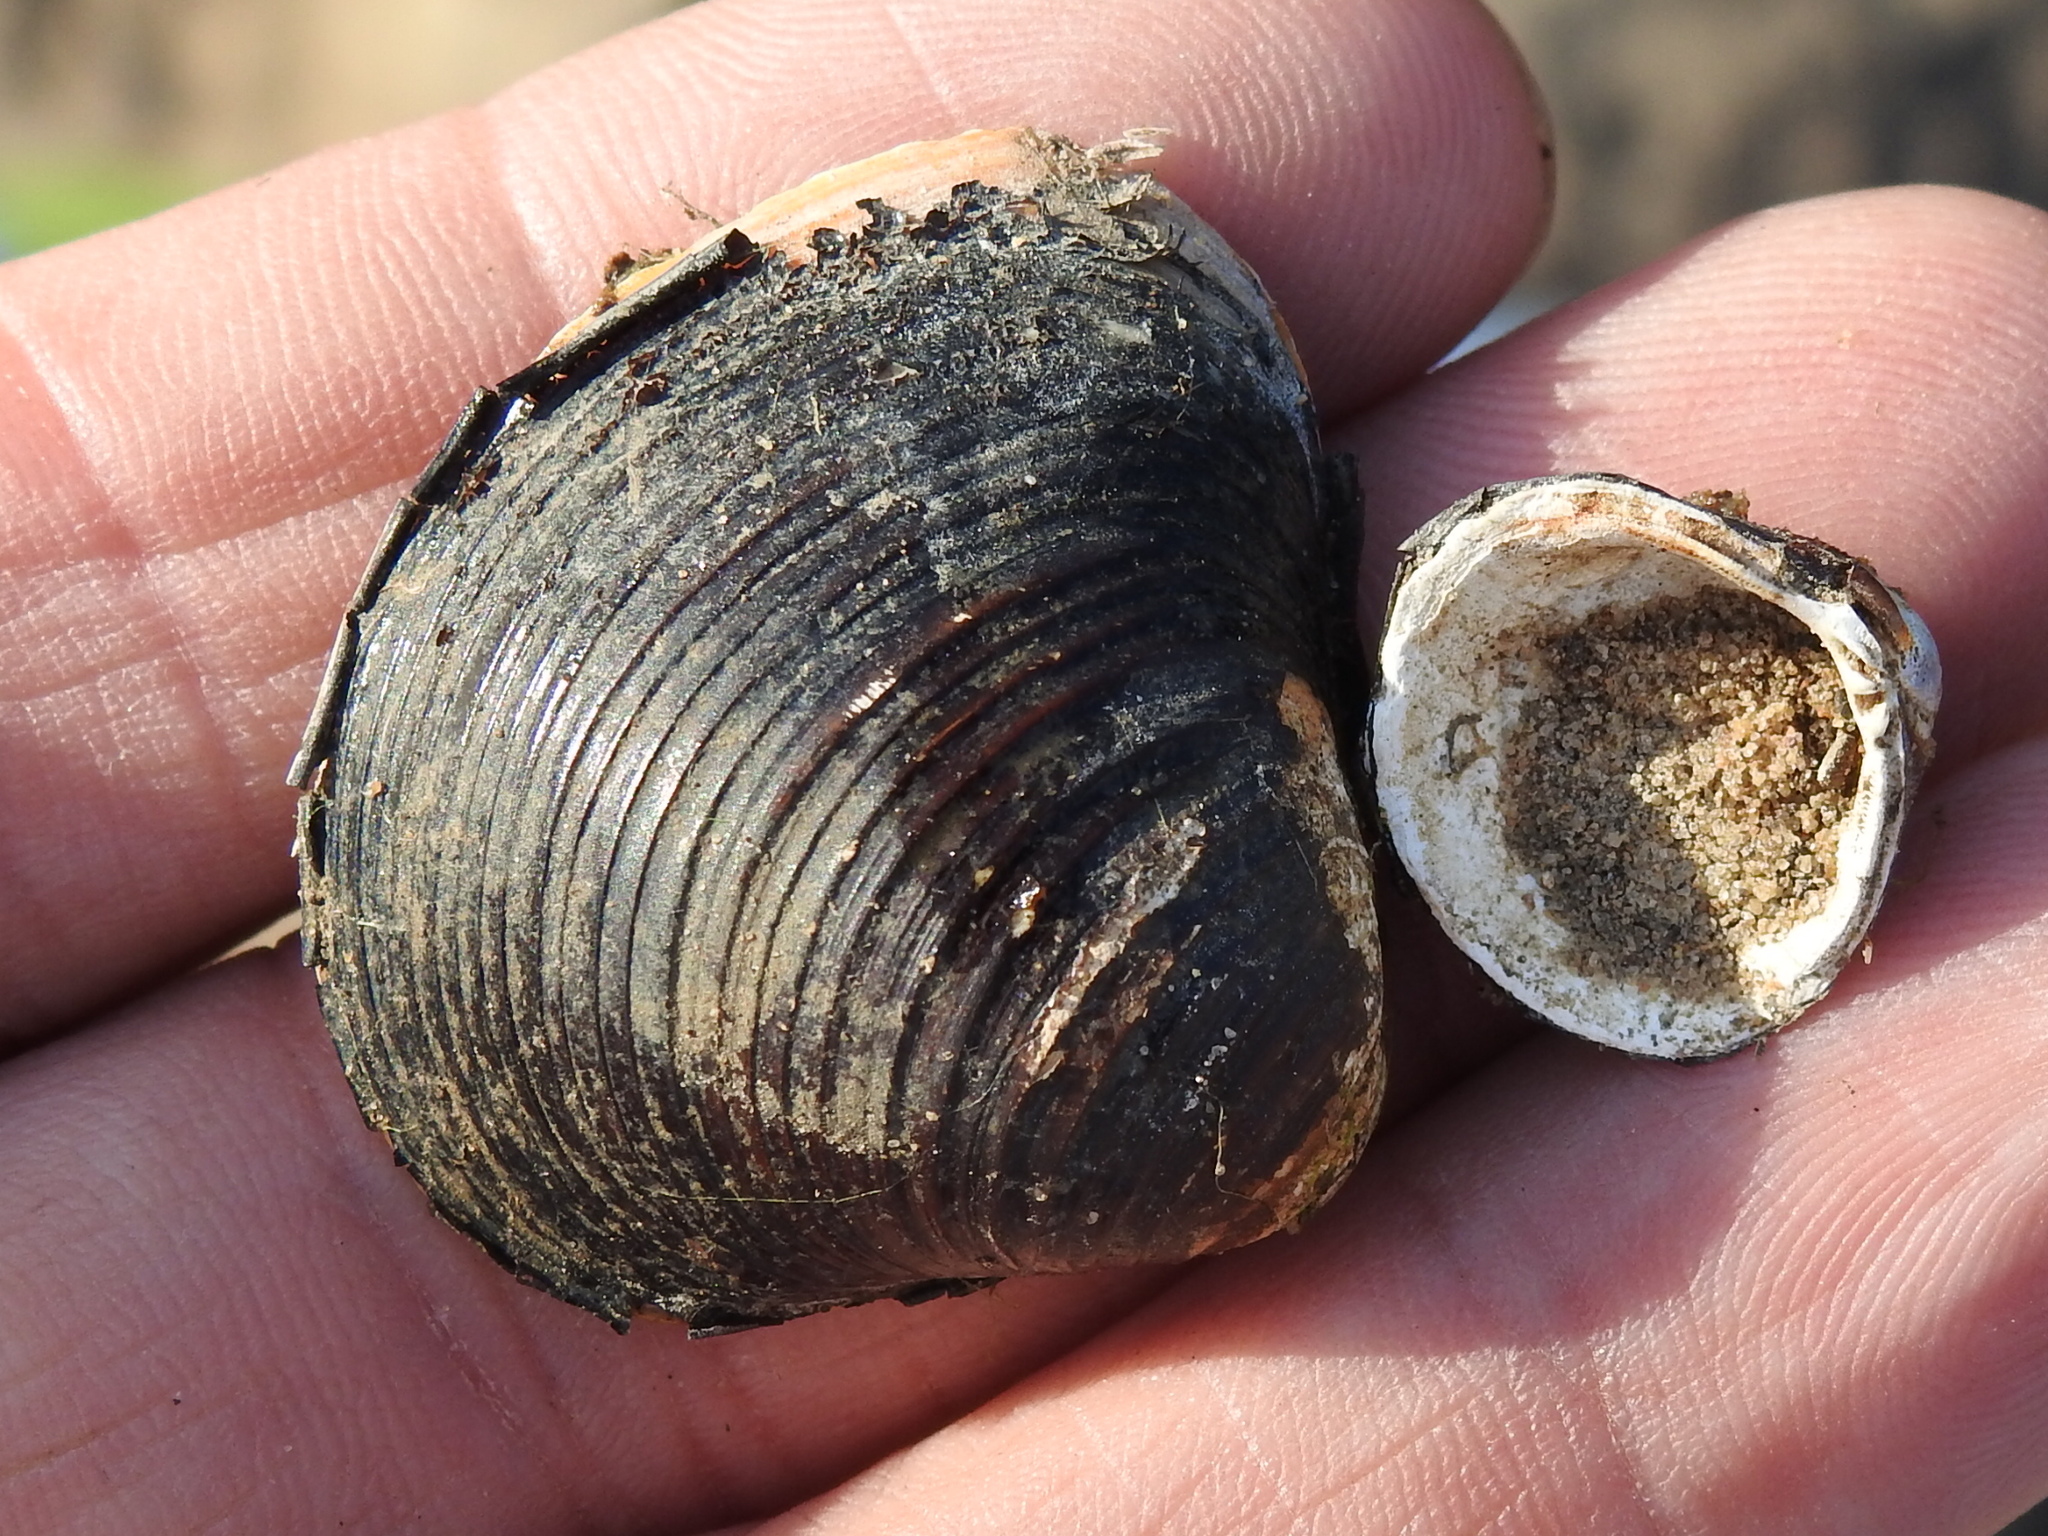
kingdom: Animalia
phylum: Mollusca
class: Bivalvia
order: Venerida
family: Cyrenidae
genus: Corbicula
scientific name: Corbicula fluminea
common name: Asian clam
